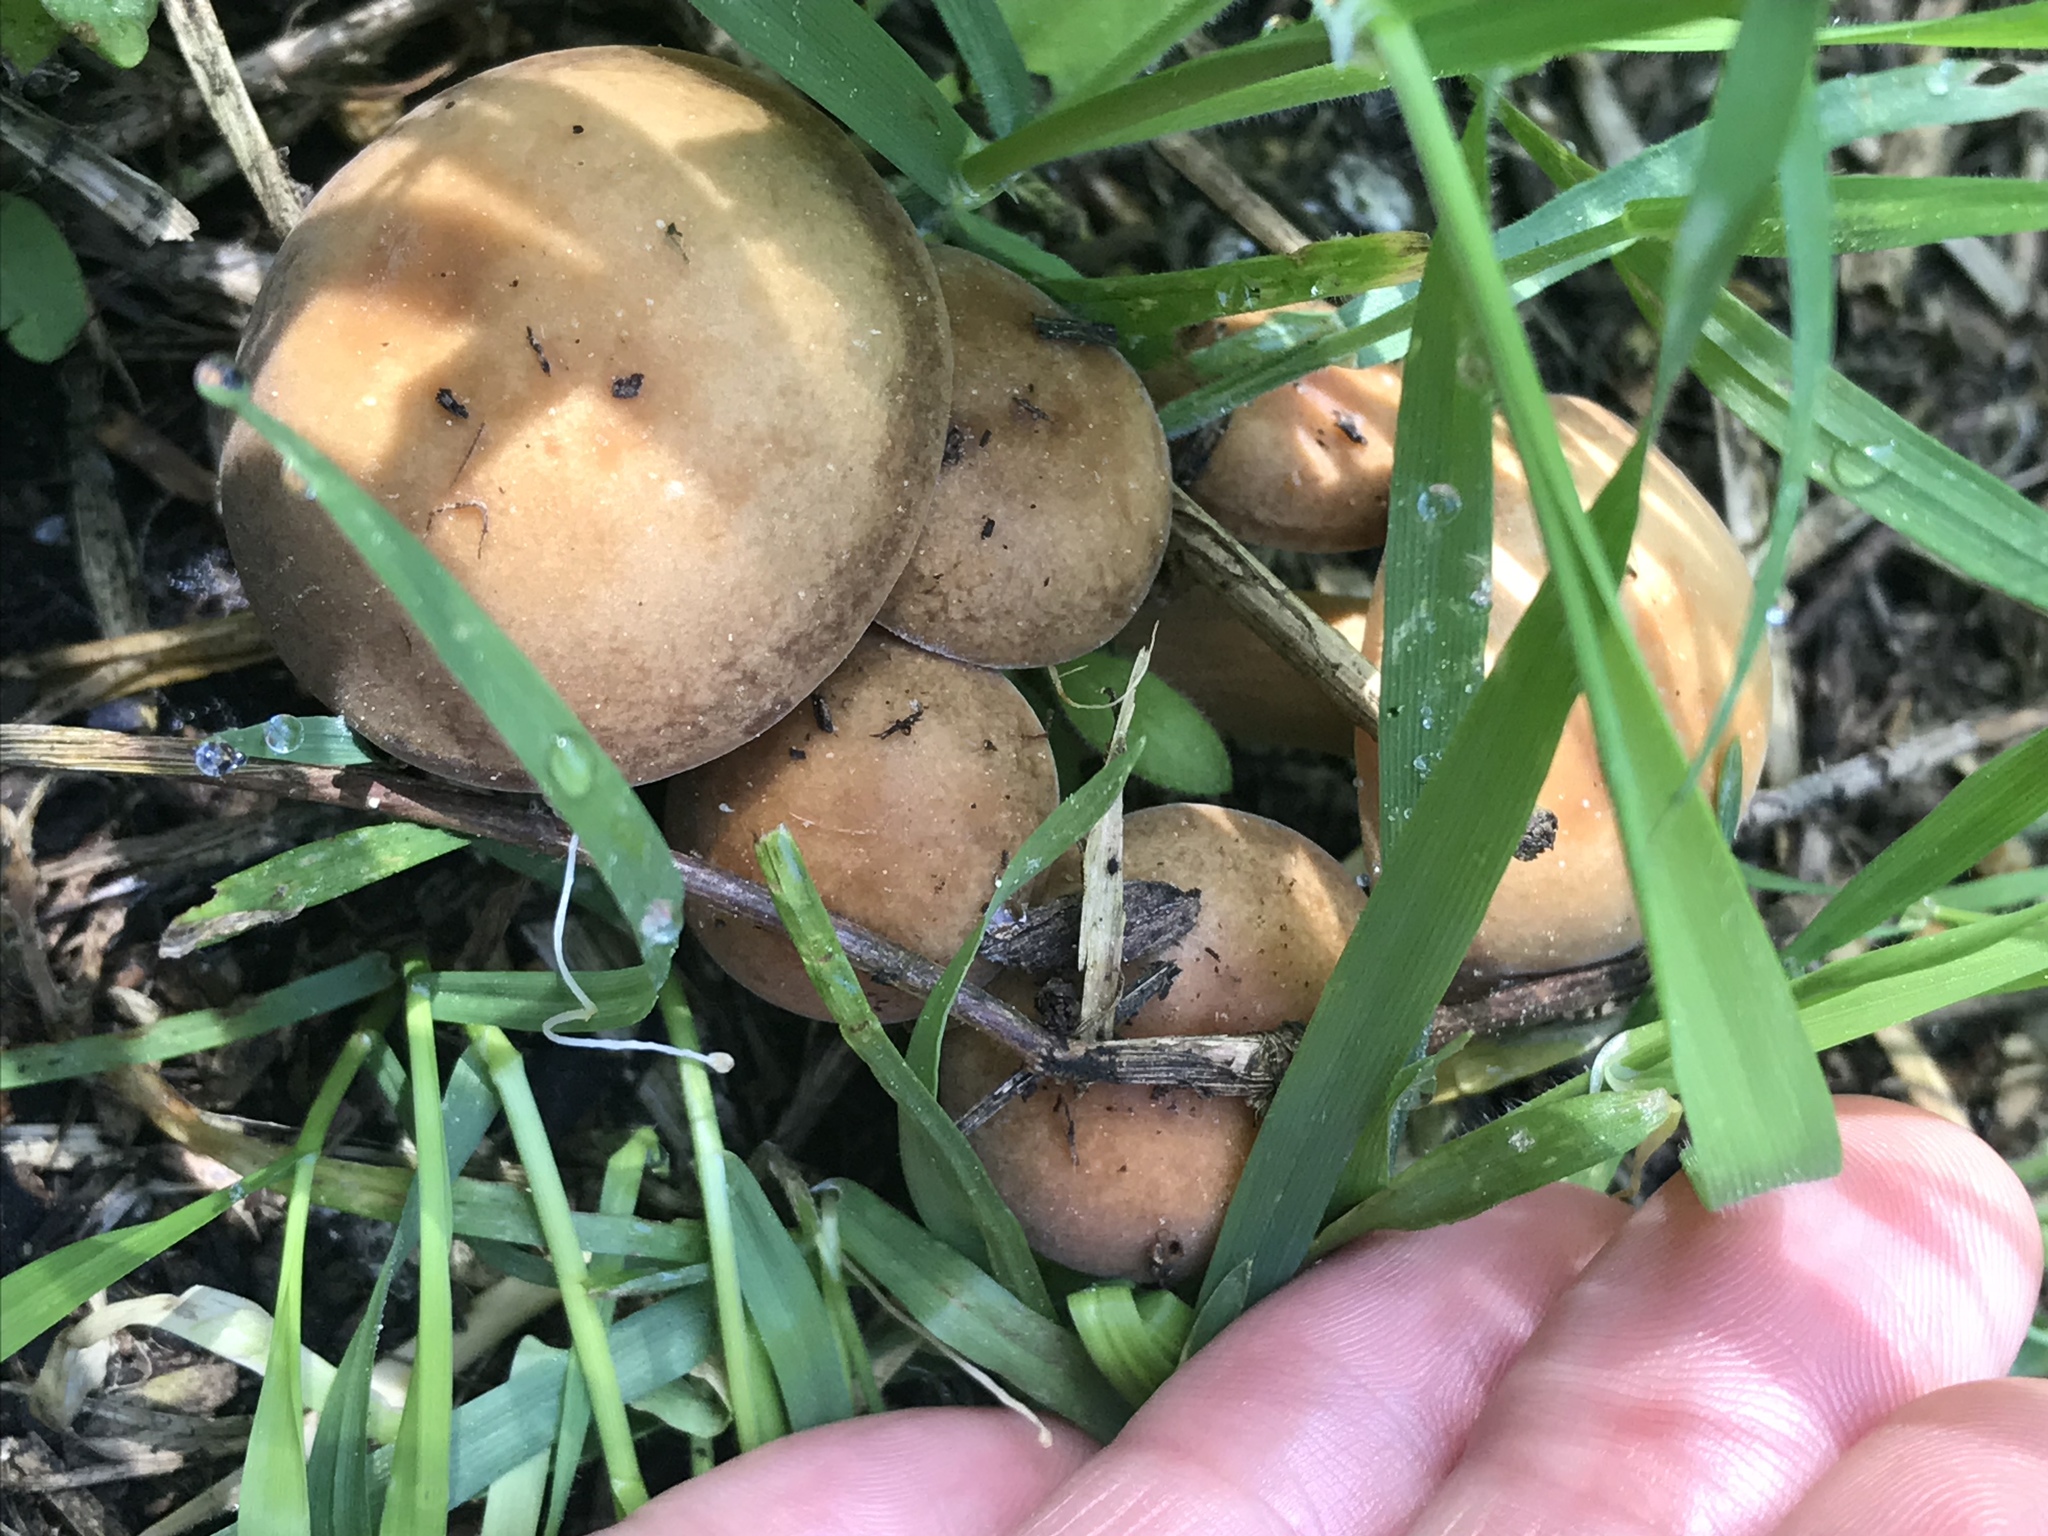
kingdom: Fungi
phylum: Basidiomycota
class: Agaricomycetes
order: Agaricales
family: Strophariaceae
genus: Agrocybe
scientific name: Agrocybe putaminum
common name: Mulch fieldcap
